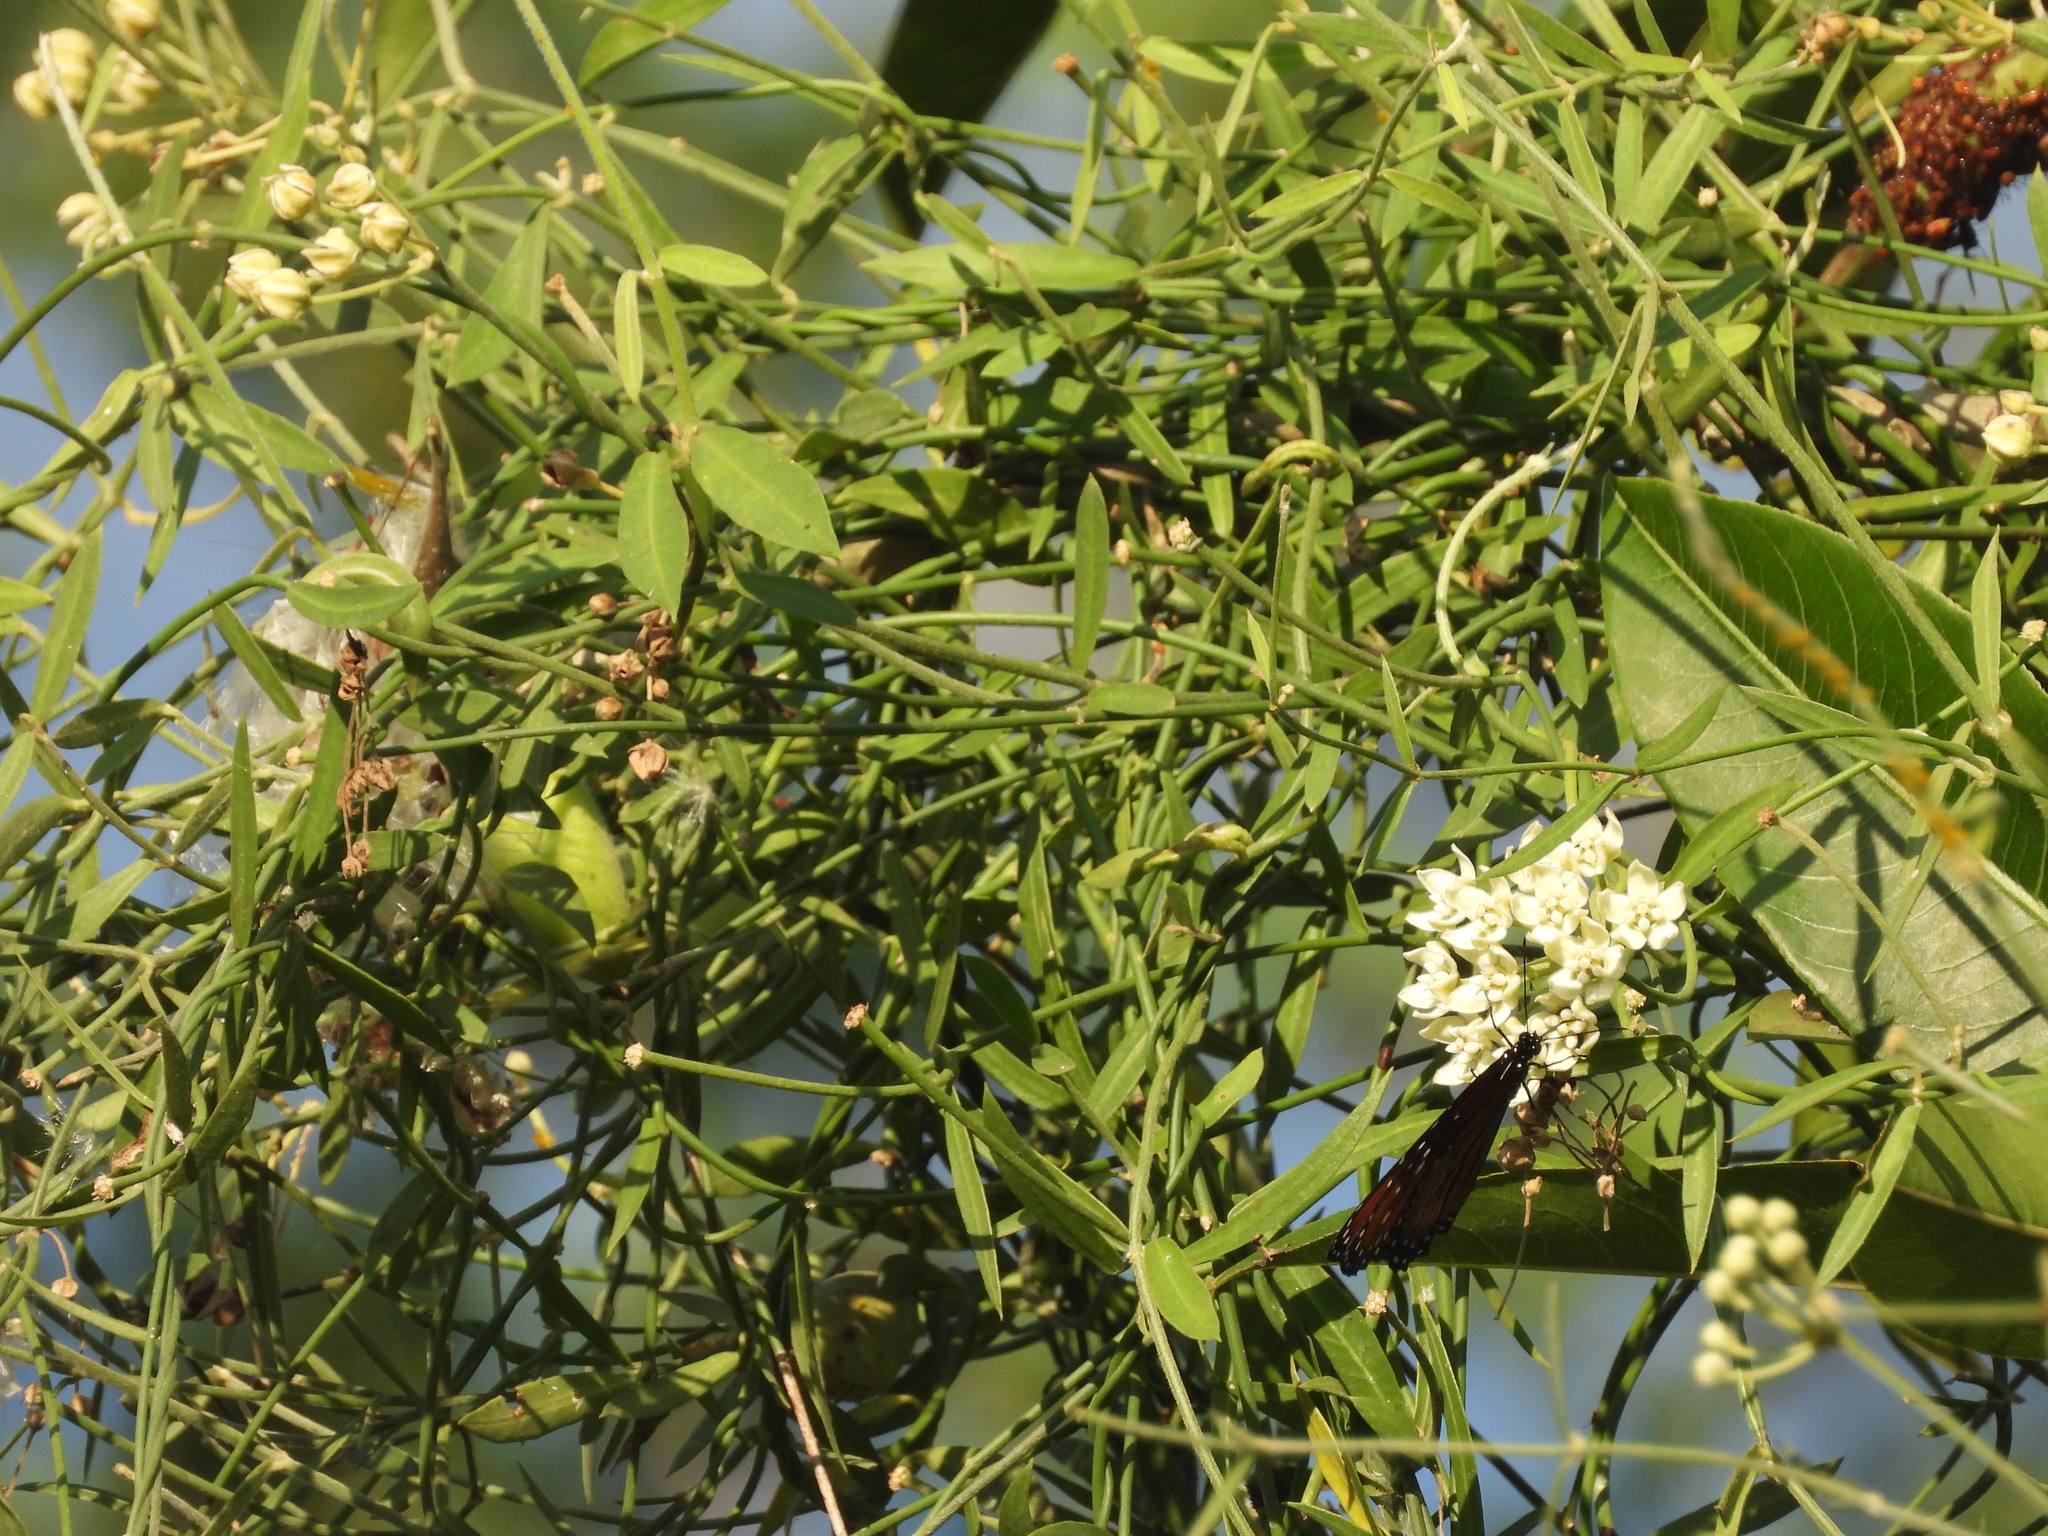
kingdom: Plantae
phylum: Tracheophyta
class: Magnoliopsida
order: Gentianales
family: Apocynaceae
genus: Funastrum
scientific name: Funastrum clausum
